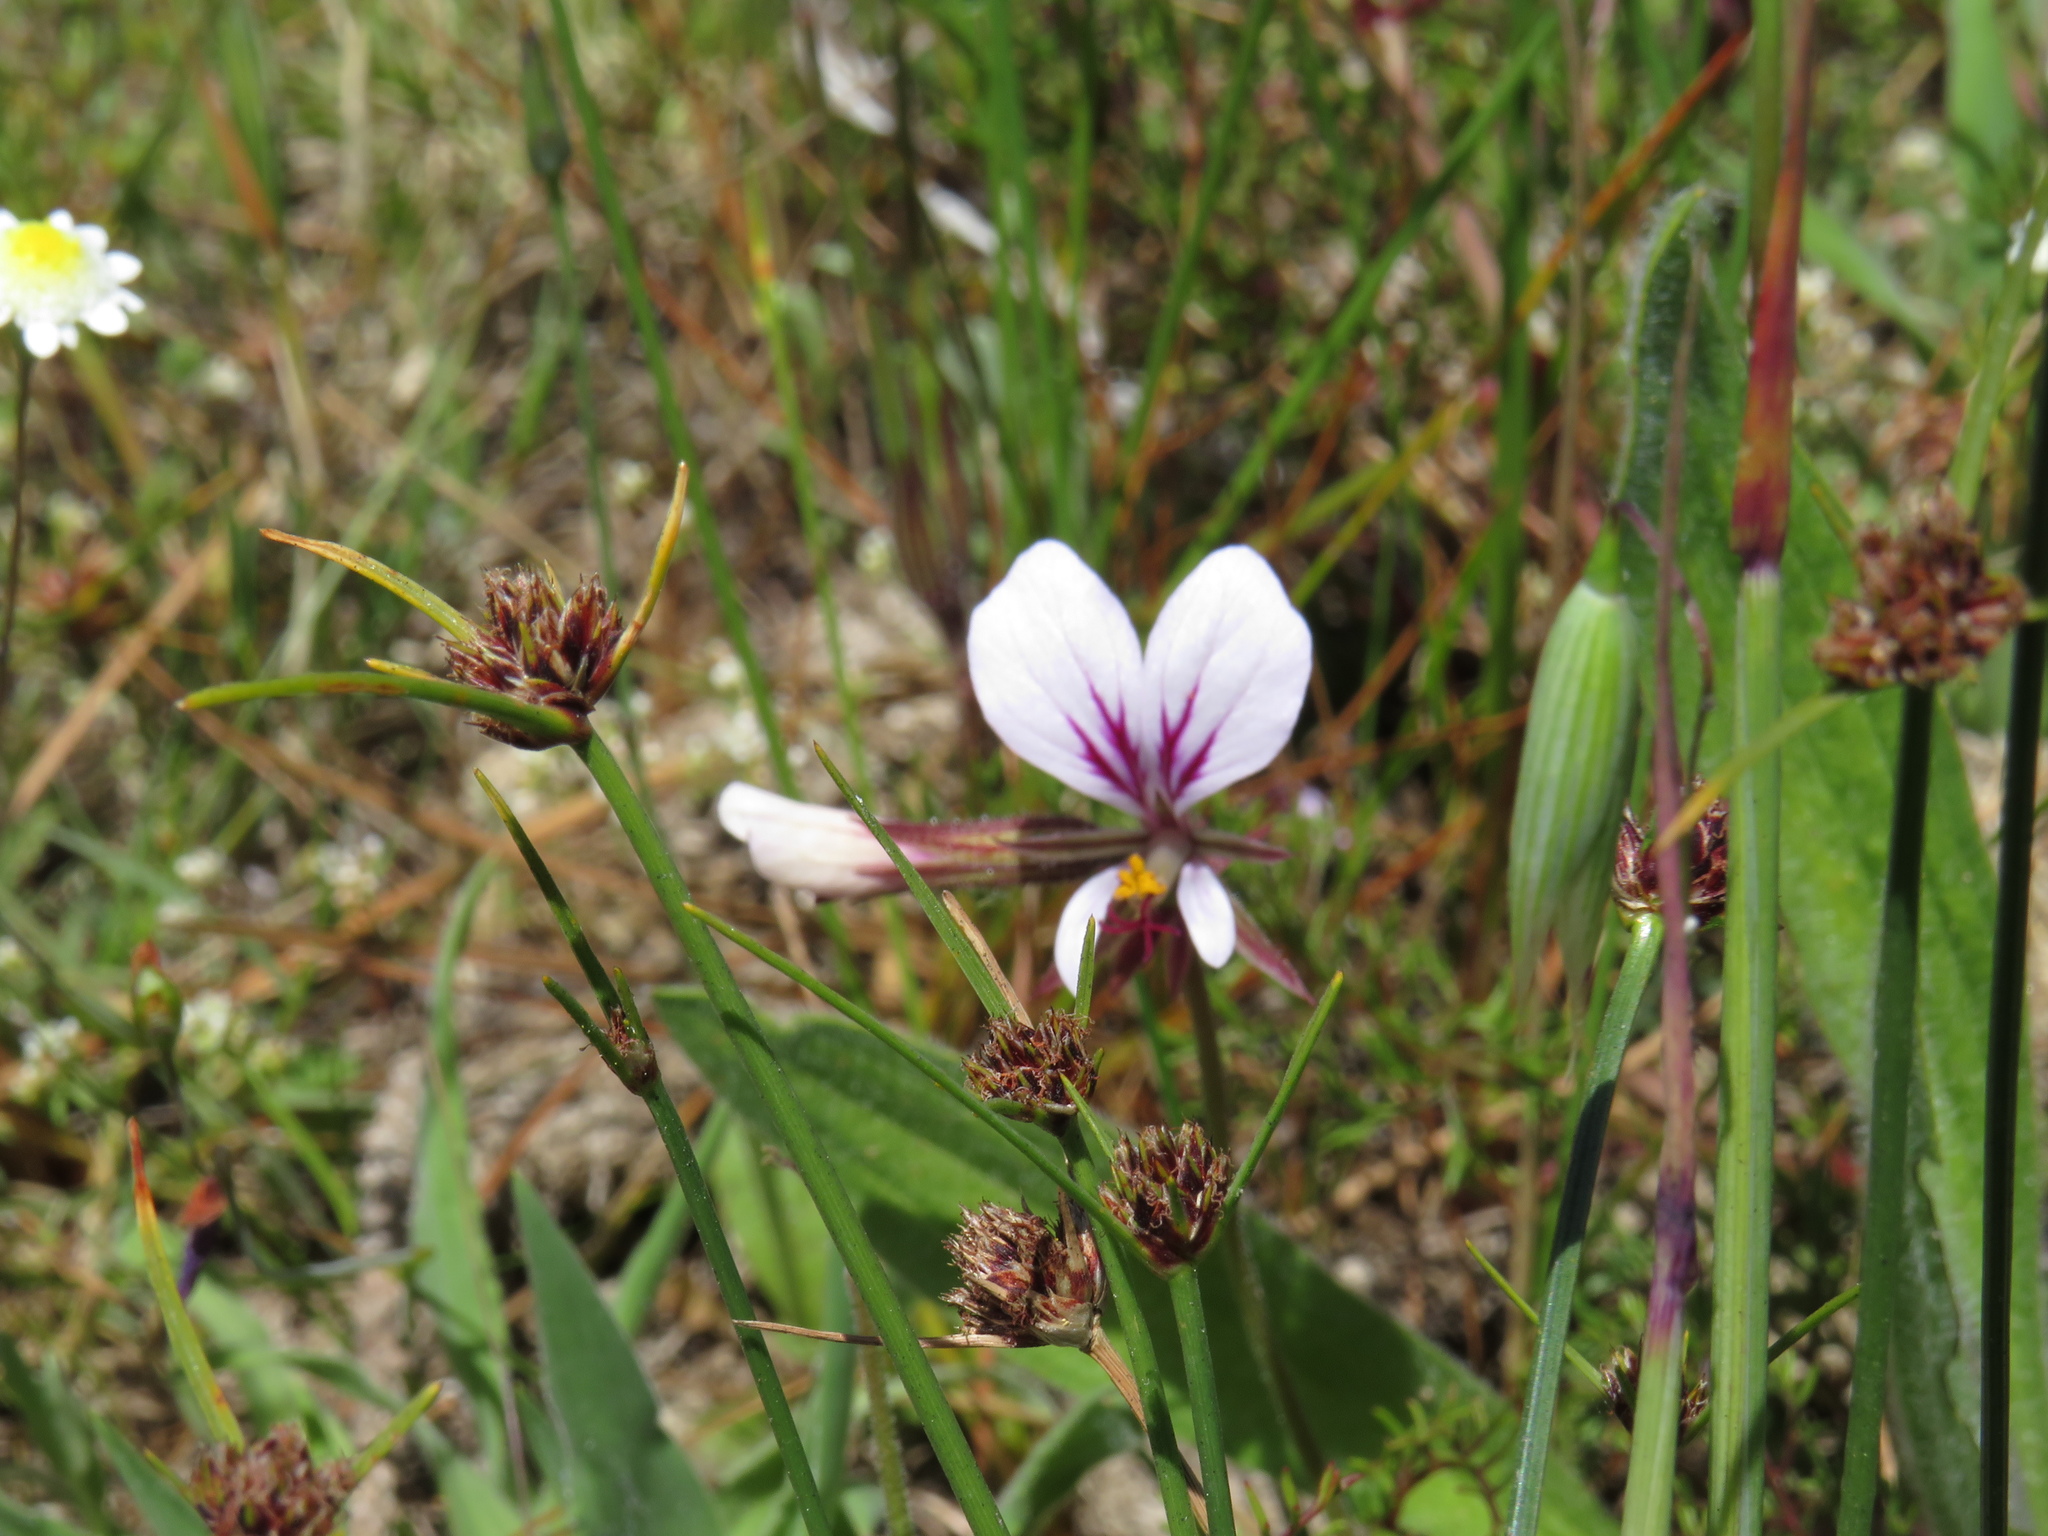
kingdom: Plantae
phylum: Tracheophyta
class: Magnoliopsida
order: Geraniales
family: Geraniaceae
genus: Pelargonium
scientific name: Pelargonium myrrhifolium
